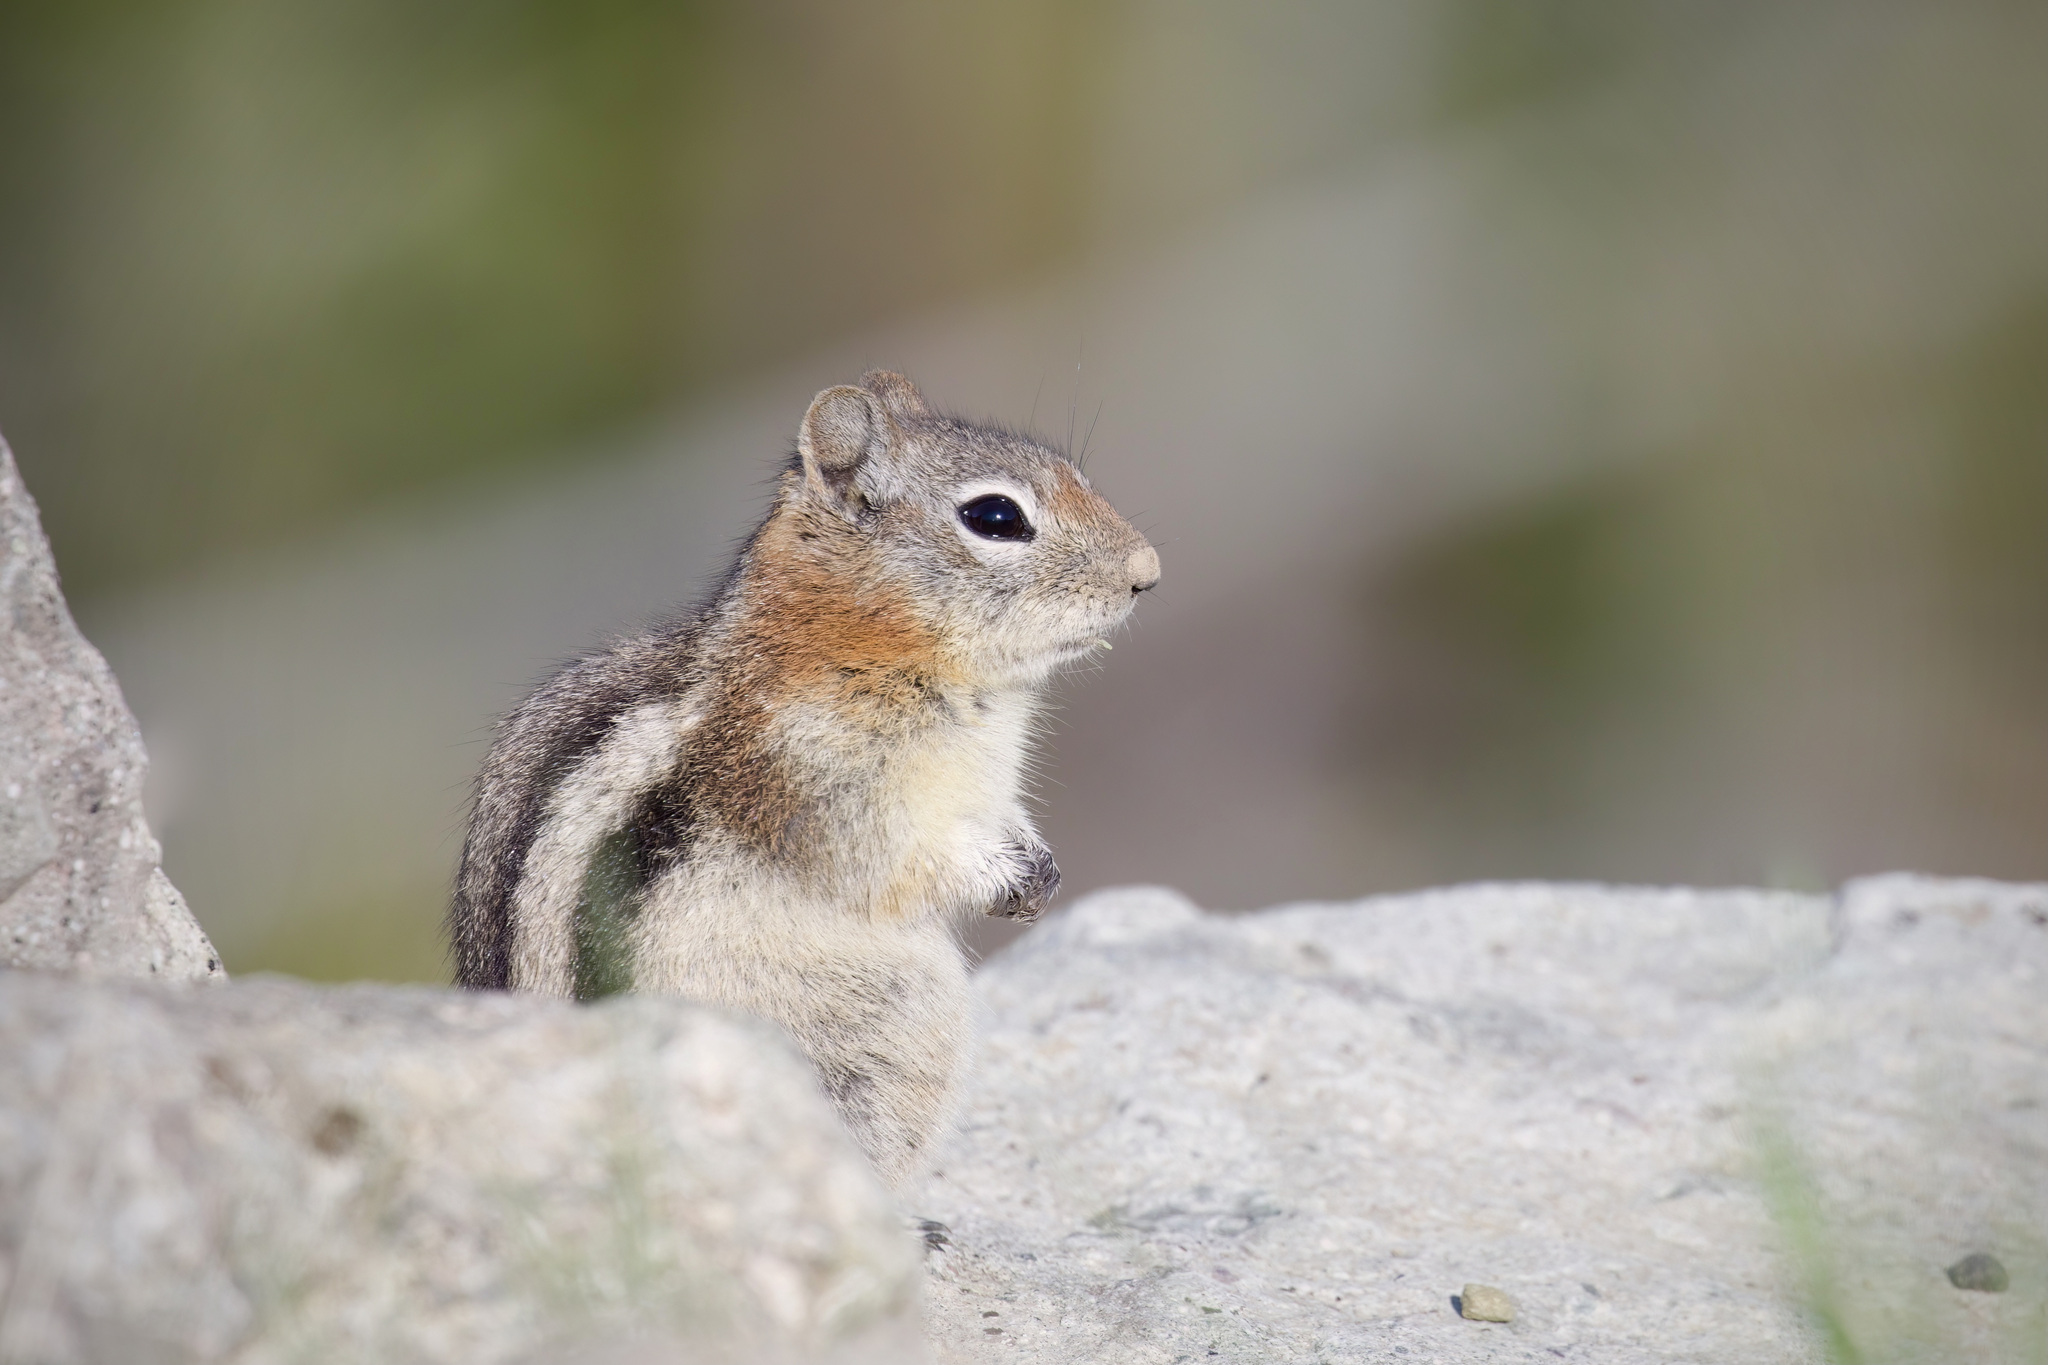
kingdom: Animalia
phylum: Chordata
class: Mammalia
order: Rodentia
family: Sciuridae
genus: Callospermophilus
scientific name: Callospermophilus lateralis
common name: Golden-mantled ground squirrel
